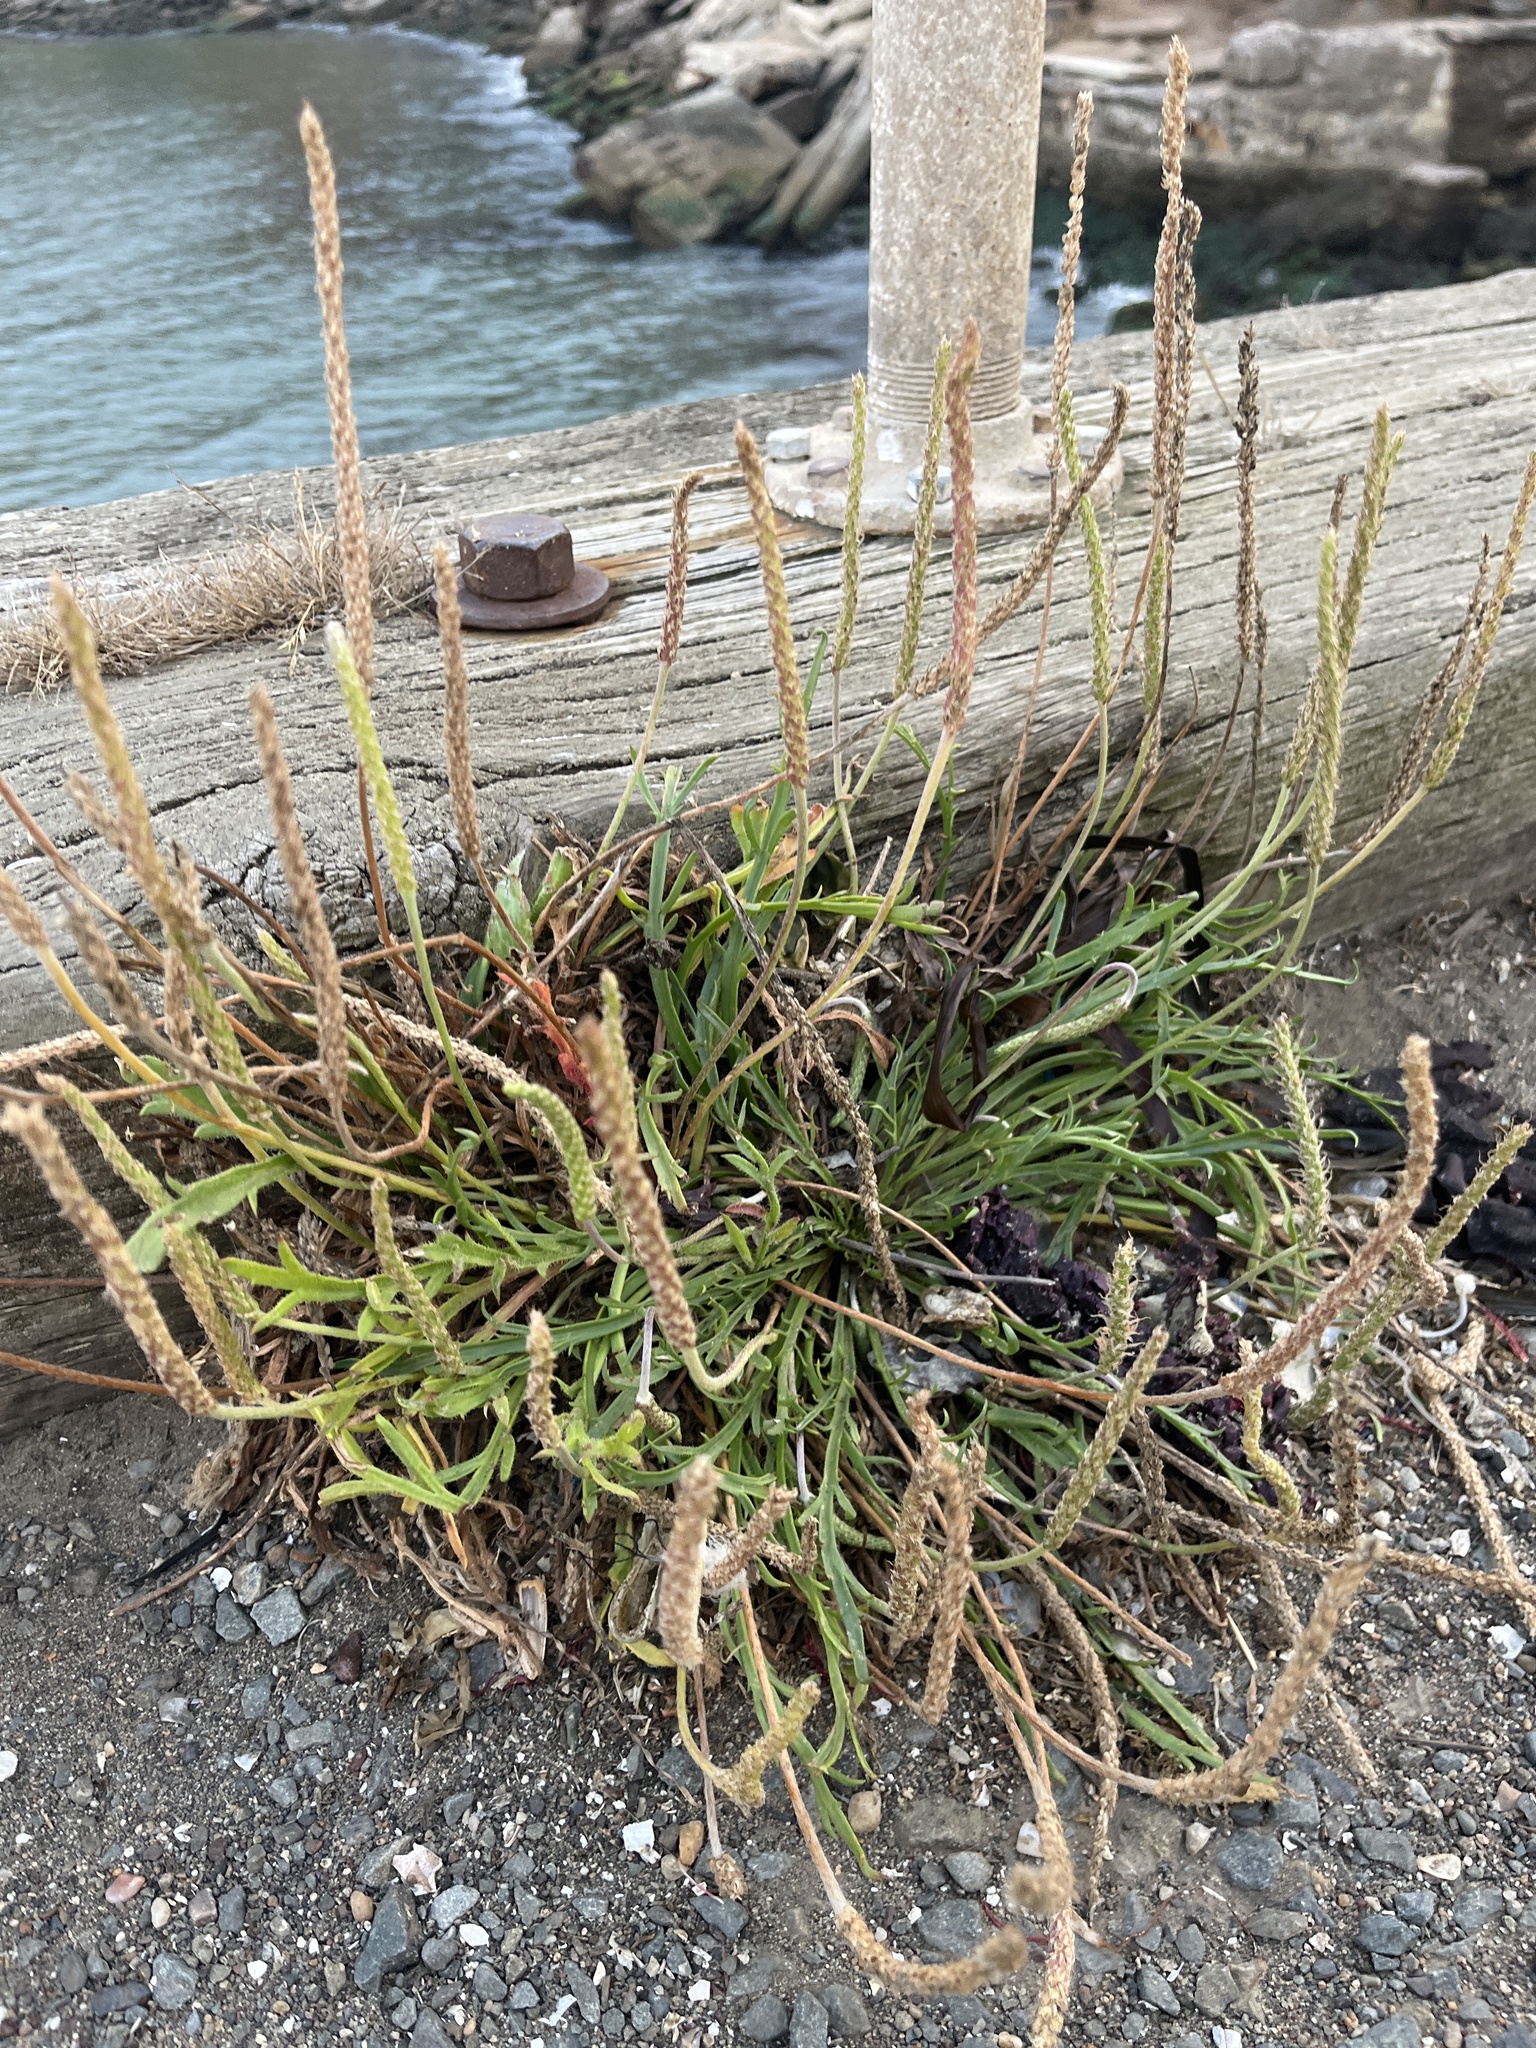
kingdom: Plantae
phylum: Tracheophyta
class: Magnoliopsida
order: Lamiales
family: Plantaginaceae
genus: Plantago
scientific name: Plantago coronopus
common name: Buck's-horn plantain
